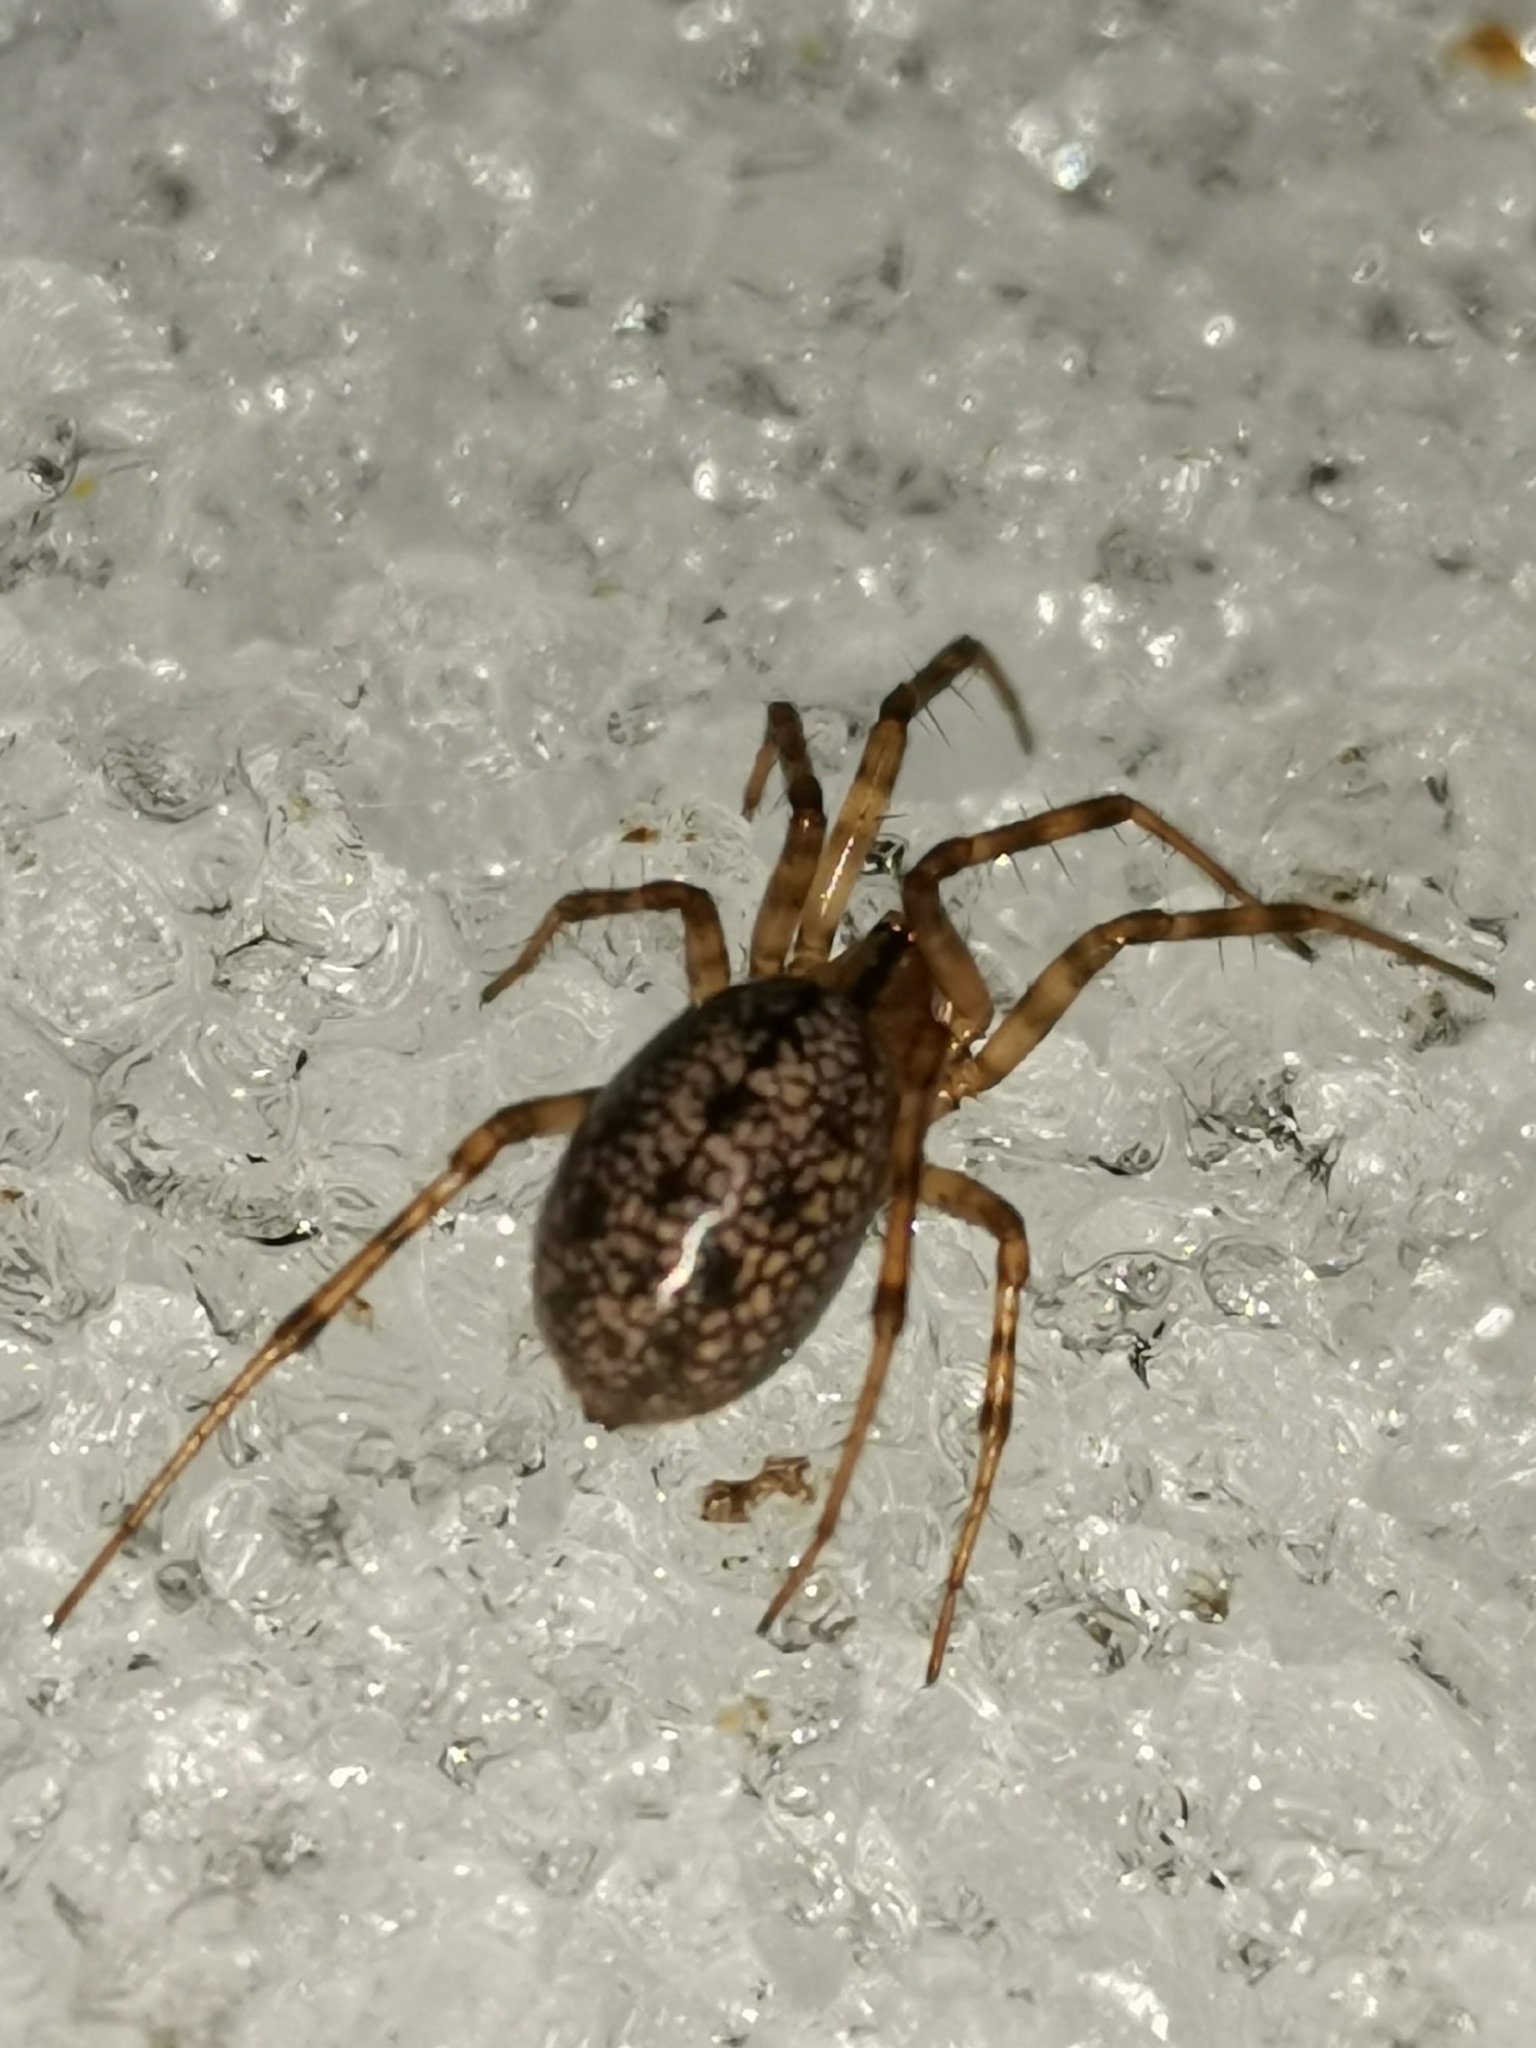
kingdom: Animalia
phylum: Arthropoda
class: Arachnida
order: Araneae
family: Linyphiidae
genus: Stemonyphantes
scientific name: Stemonyphantes lineatus
